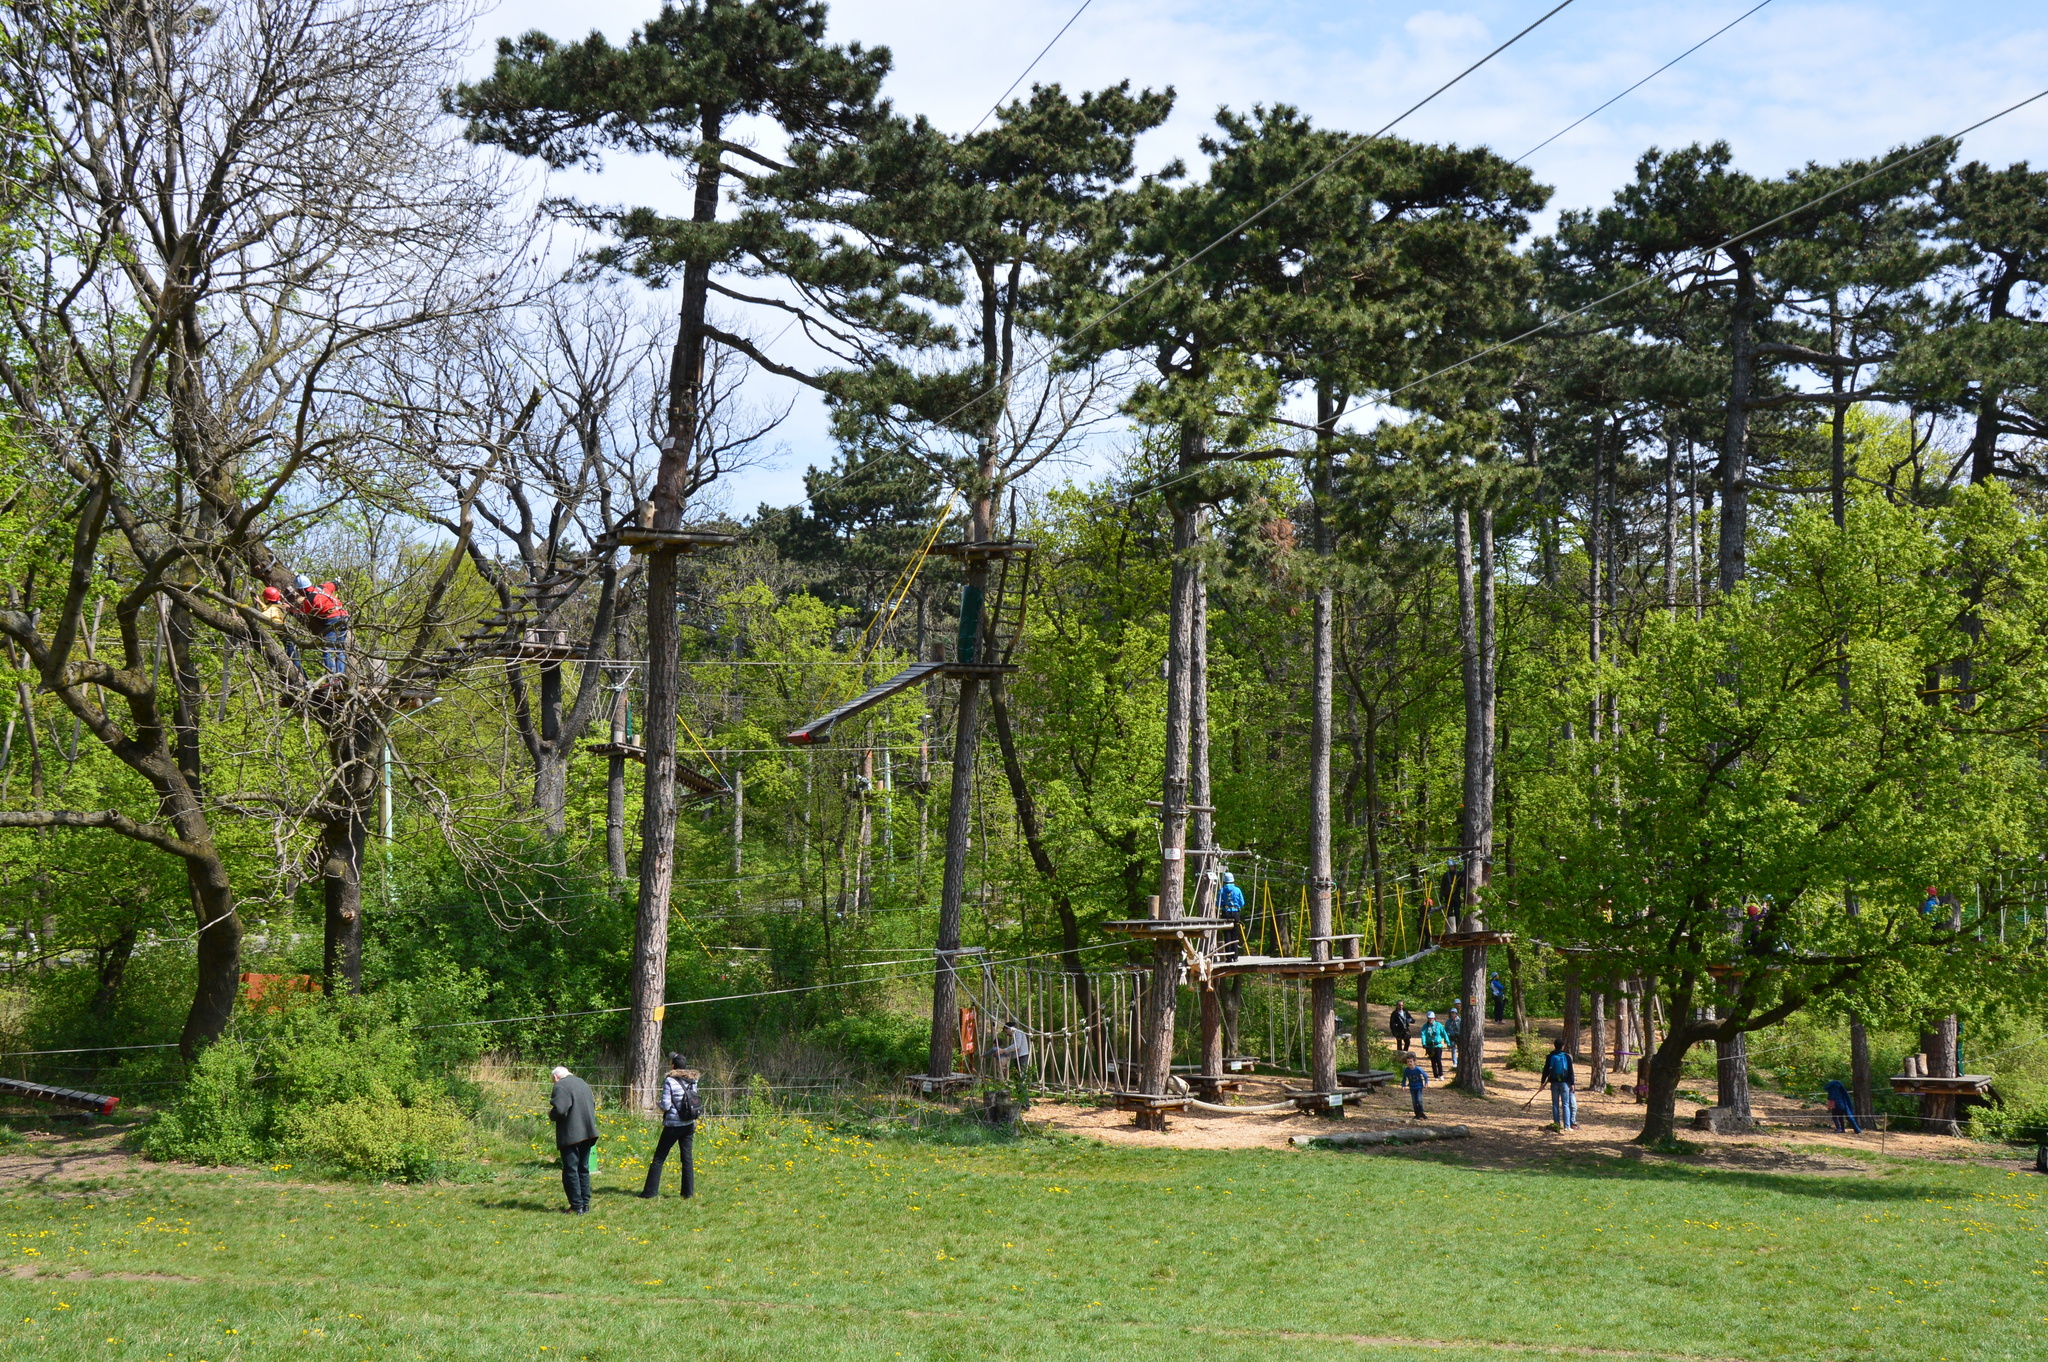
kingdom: Plantae
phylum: Tracheophyta
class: Pinopsida
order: Pinales
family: Pinaceae
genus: Pinus
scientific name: Pinus nigra
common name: Austrian pine
